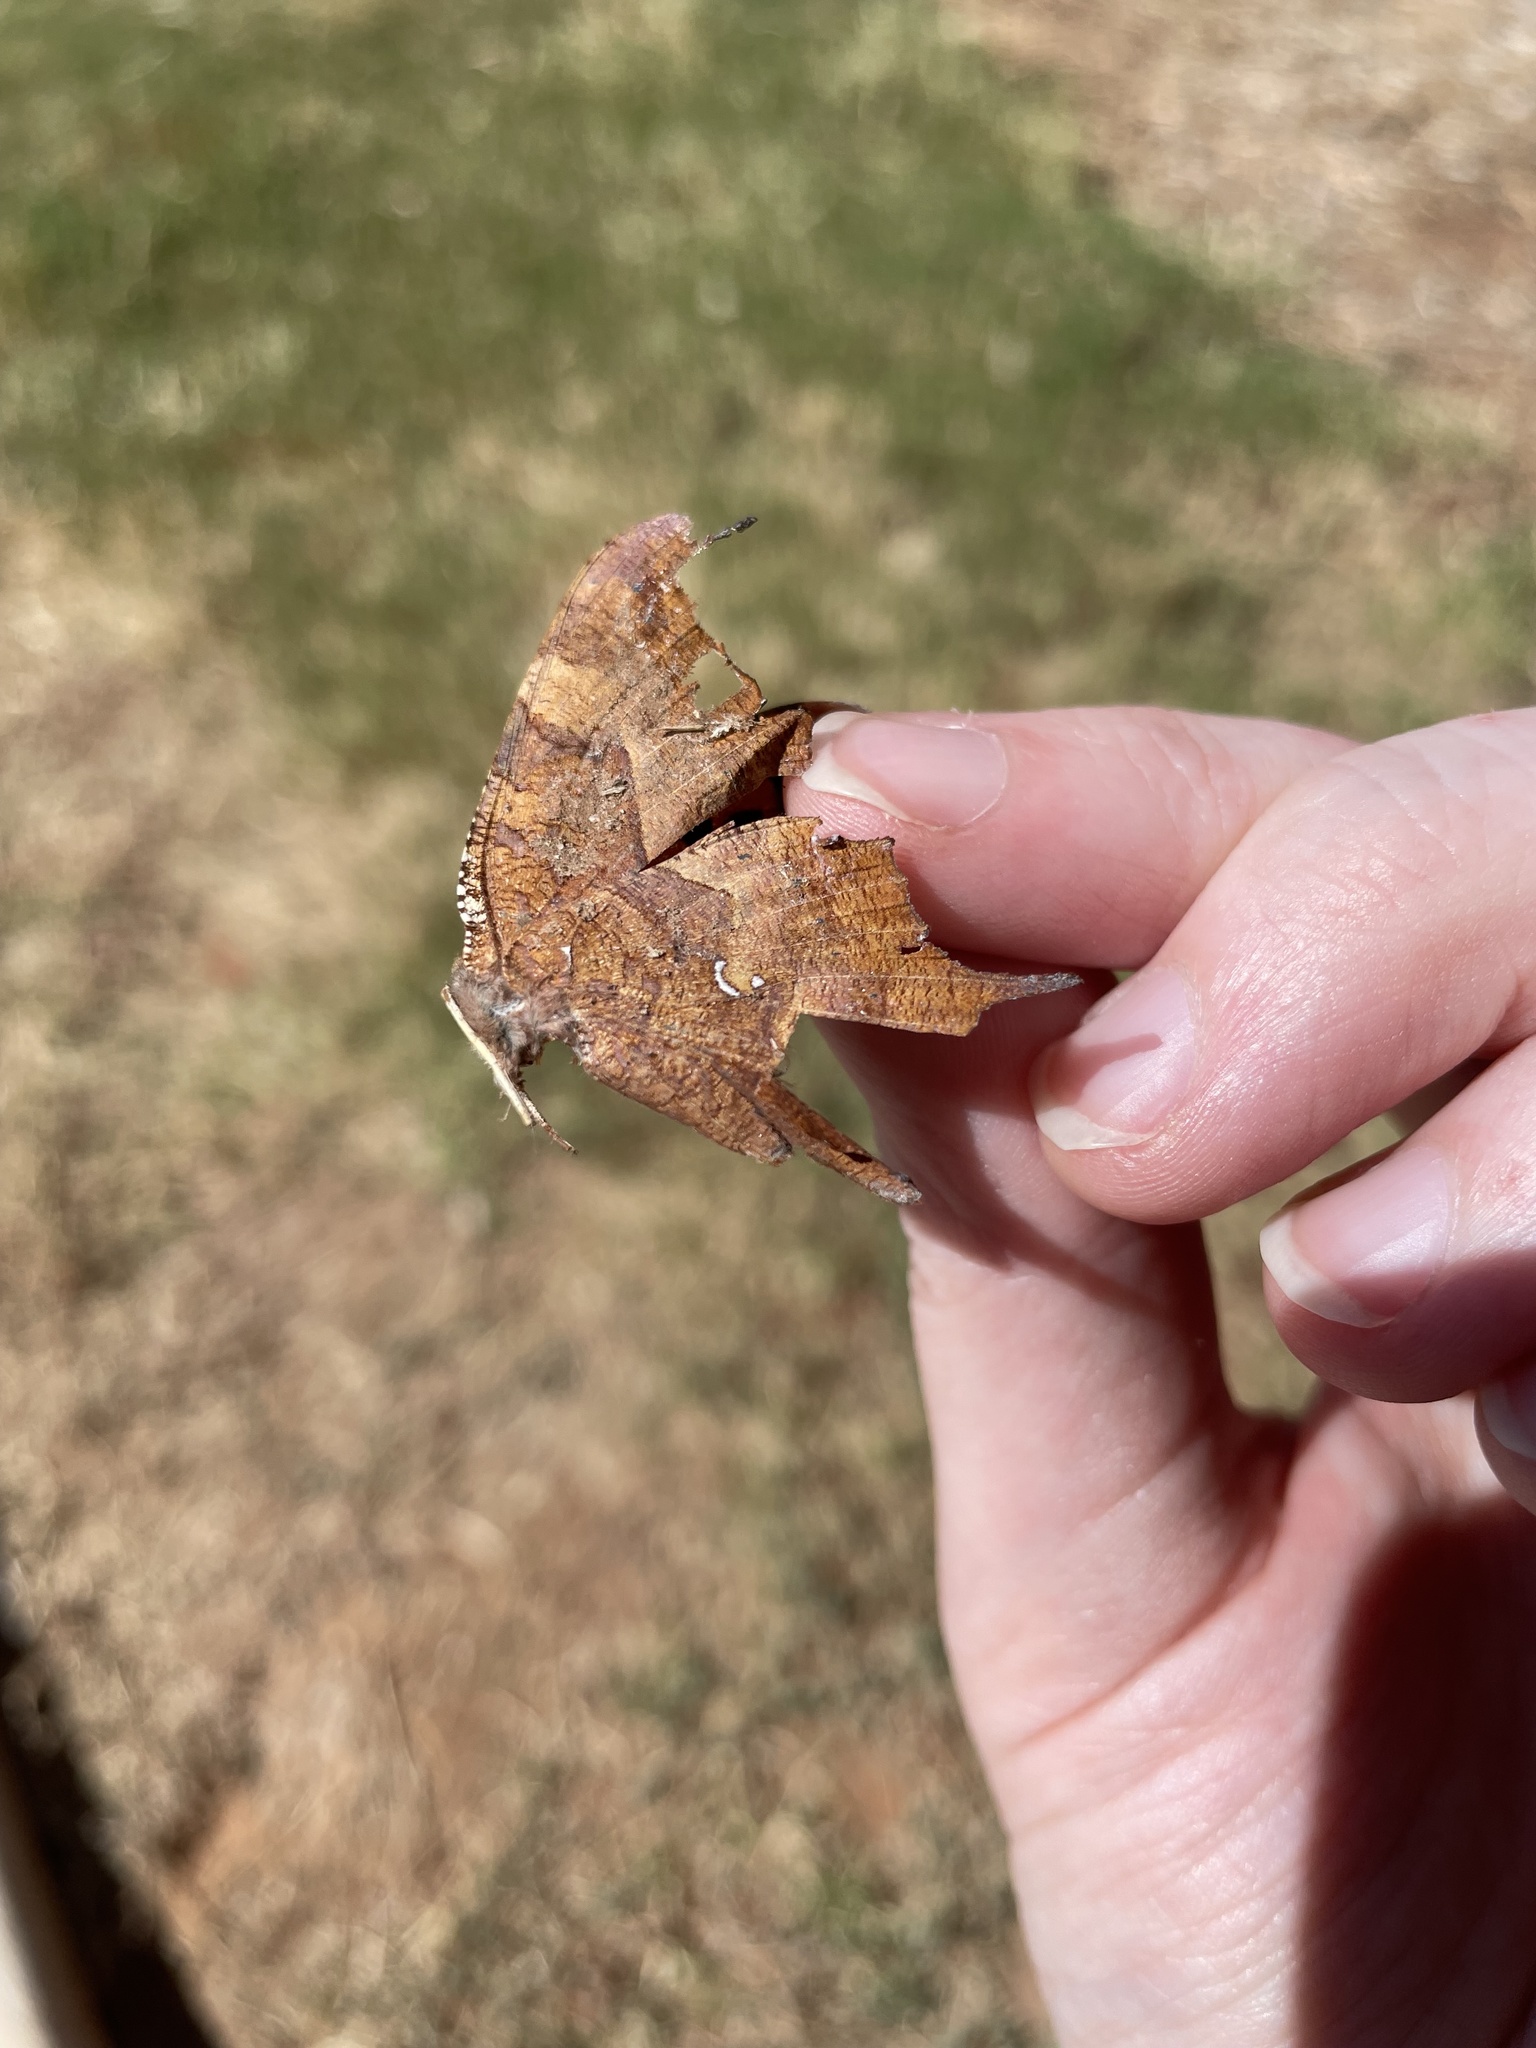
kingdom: Animalia
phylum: Arthropoda
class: Insecta
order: Lepidoptera
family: Nymphalidae
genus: Polygonia
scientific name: Polygonia interrogationis
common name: Question mark
